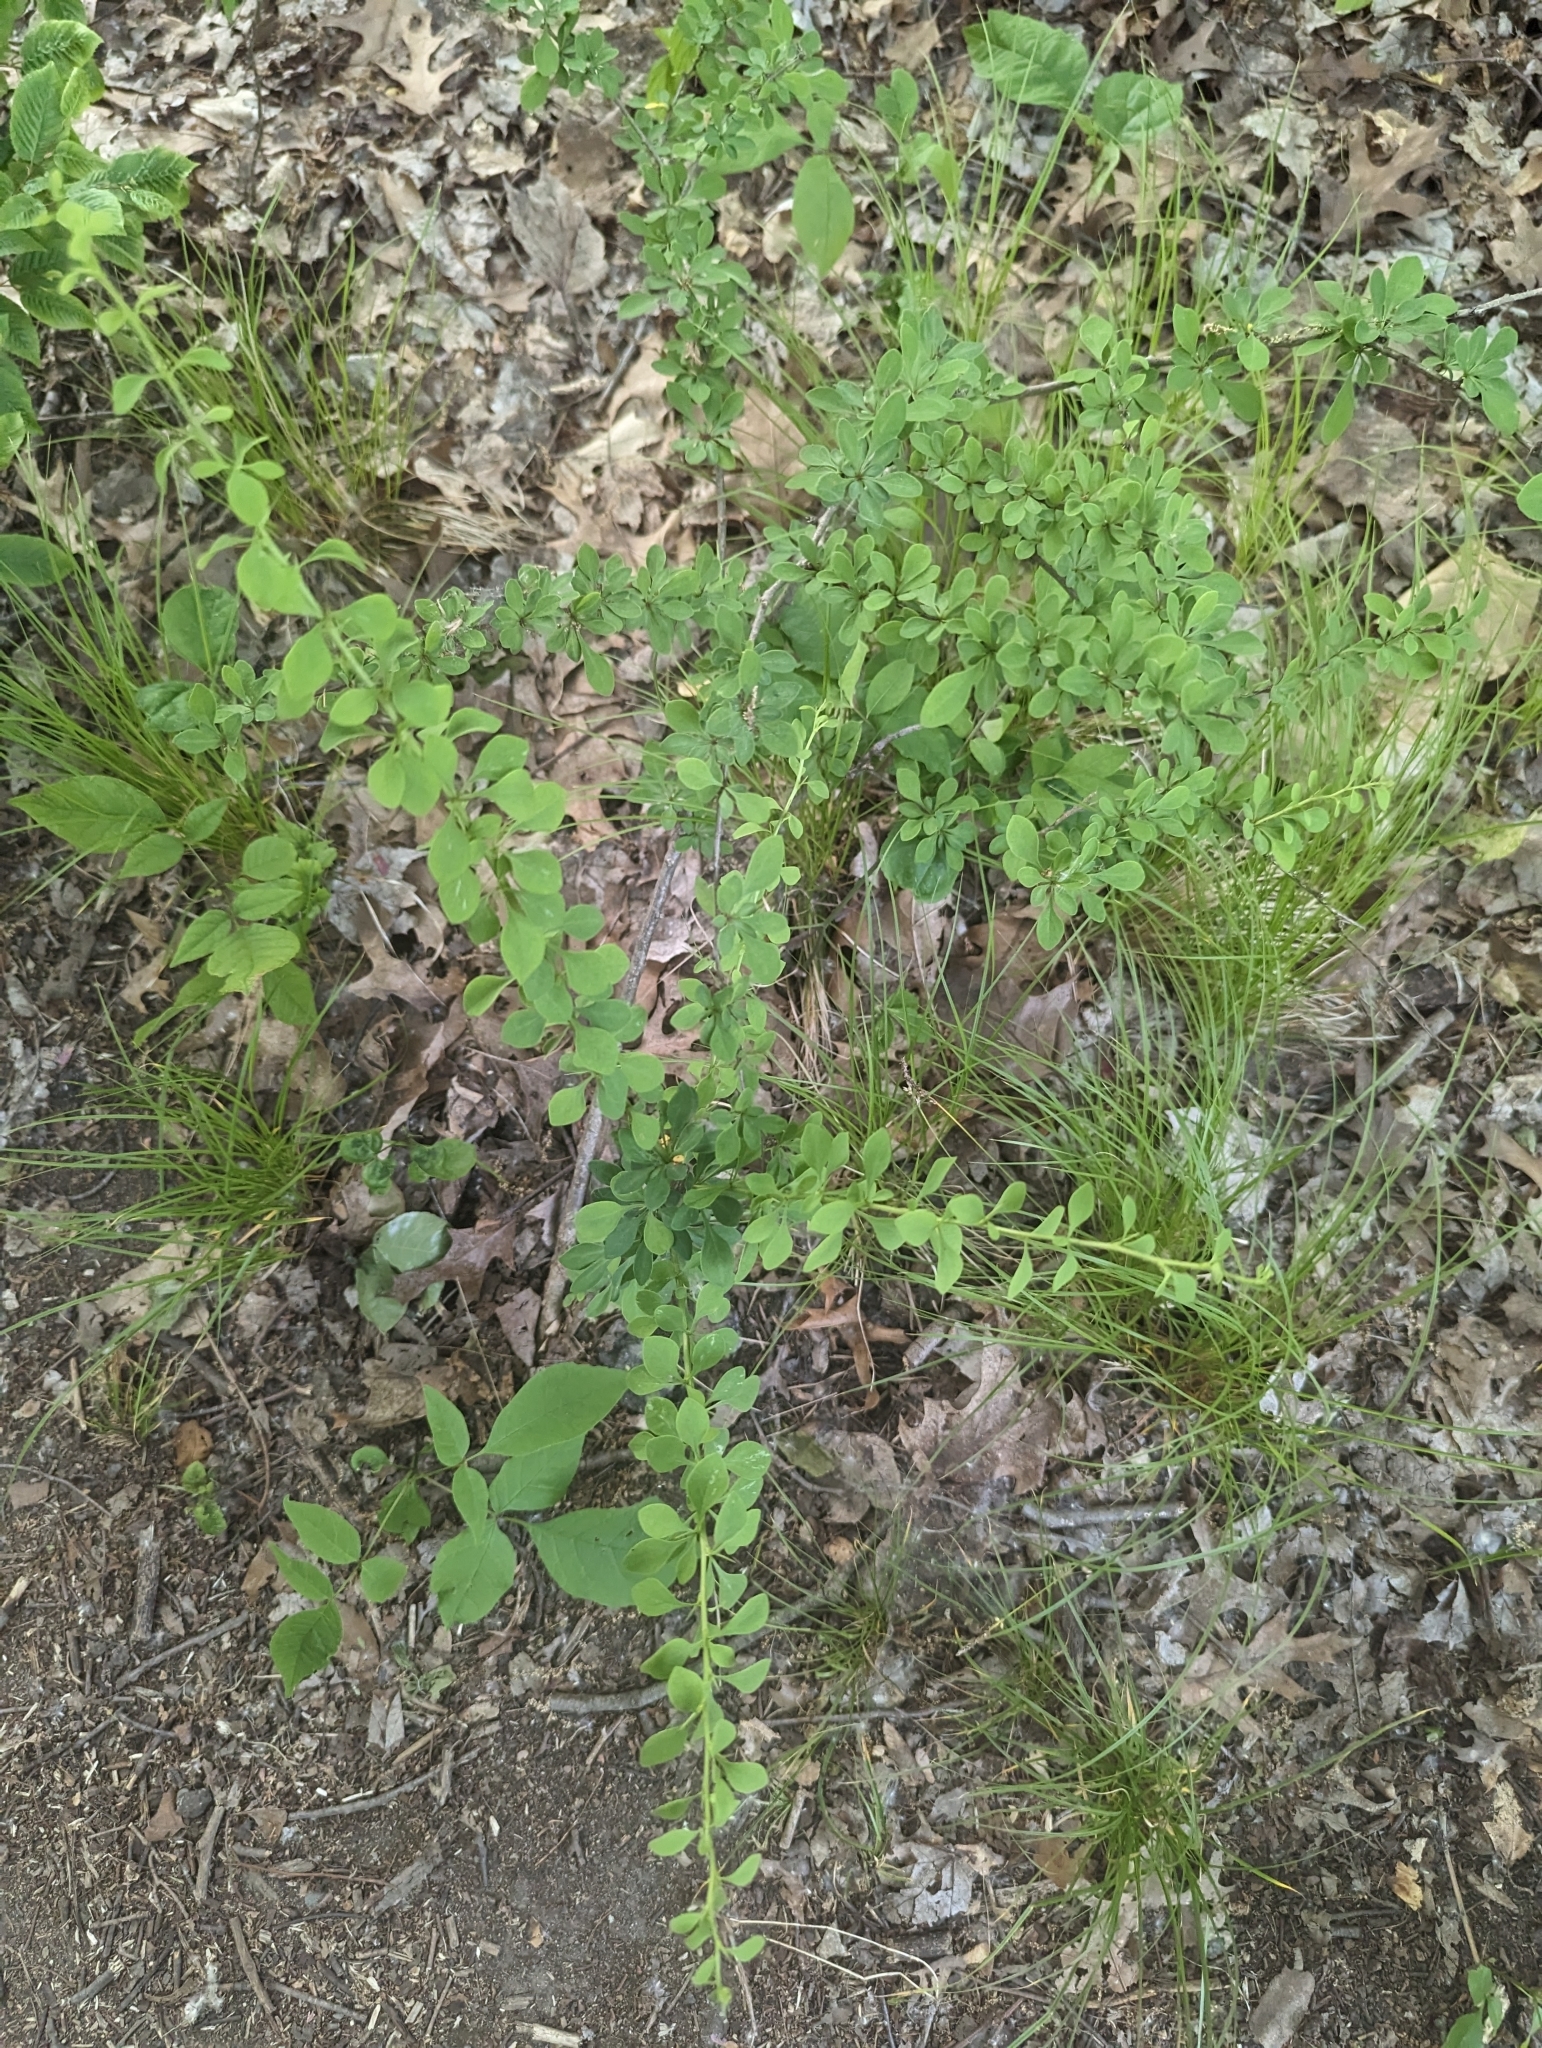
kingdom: Plantae
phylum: Tracheophyta
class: Magnoliopsida
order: Ranunculales
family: Berberidaceae
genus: Berberis
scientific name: Berberis thunbergii
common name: Japanese barberry
